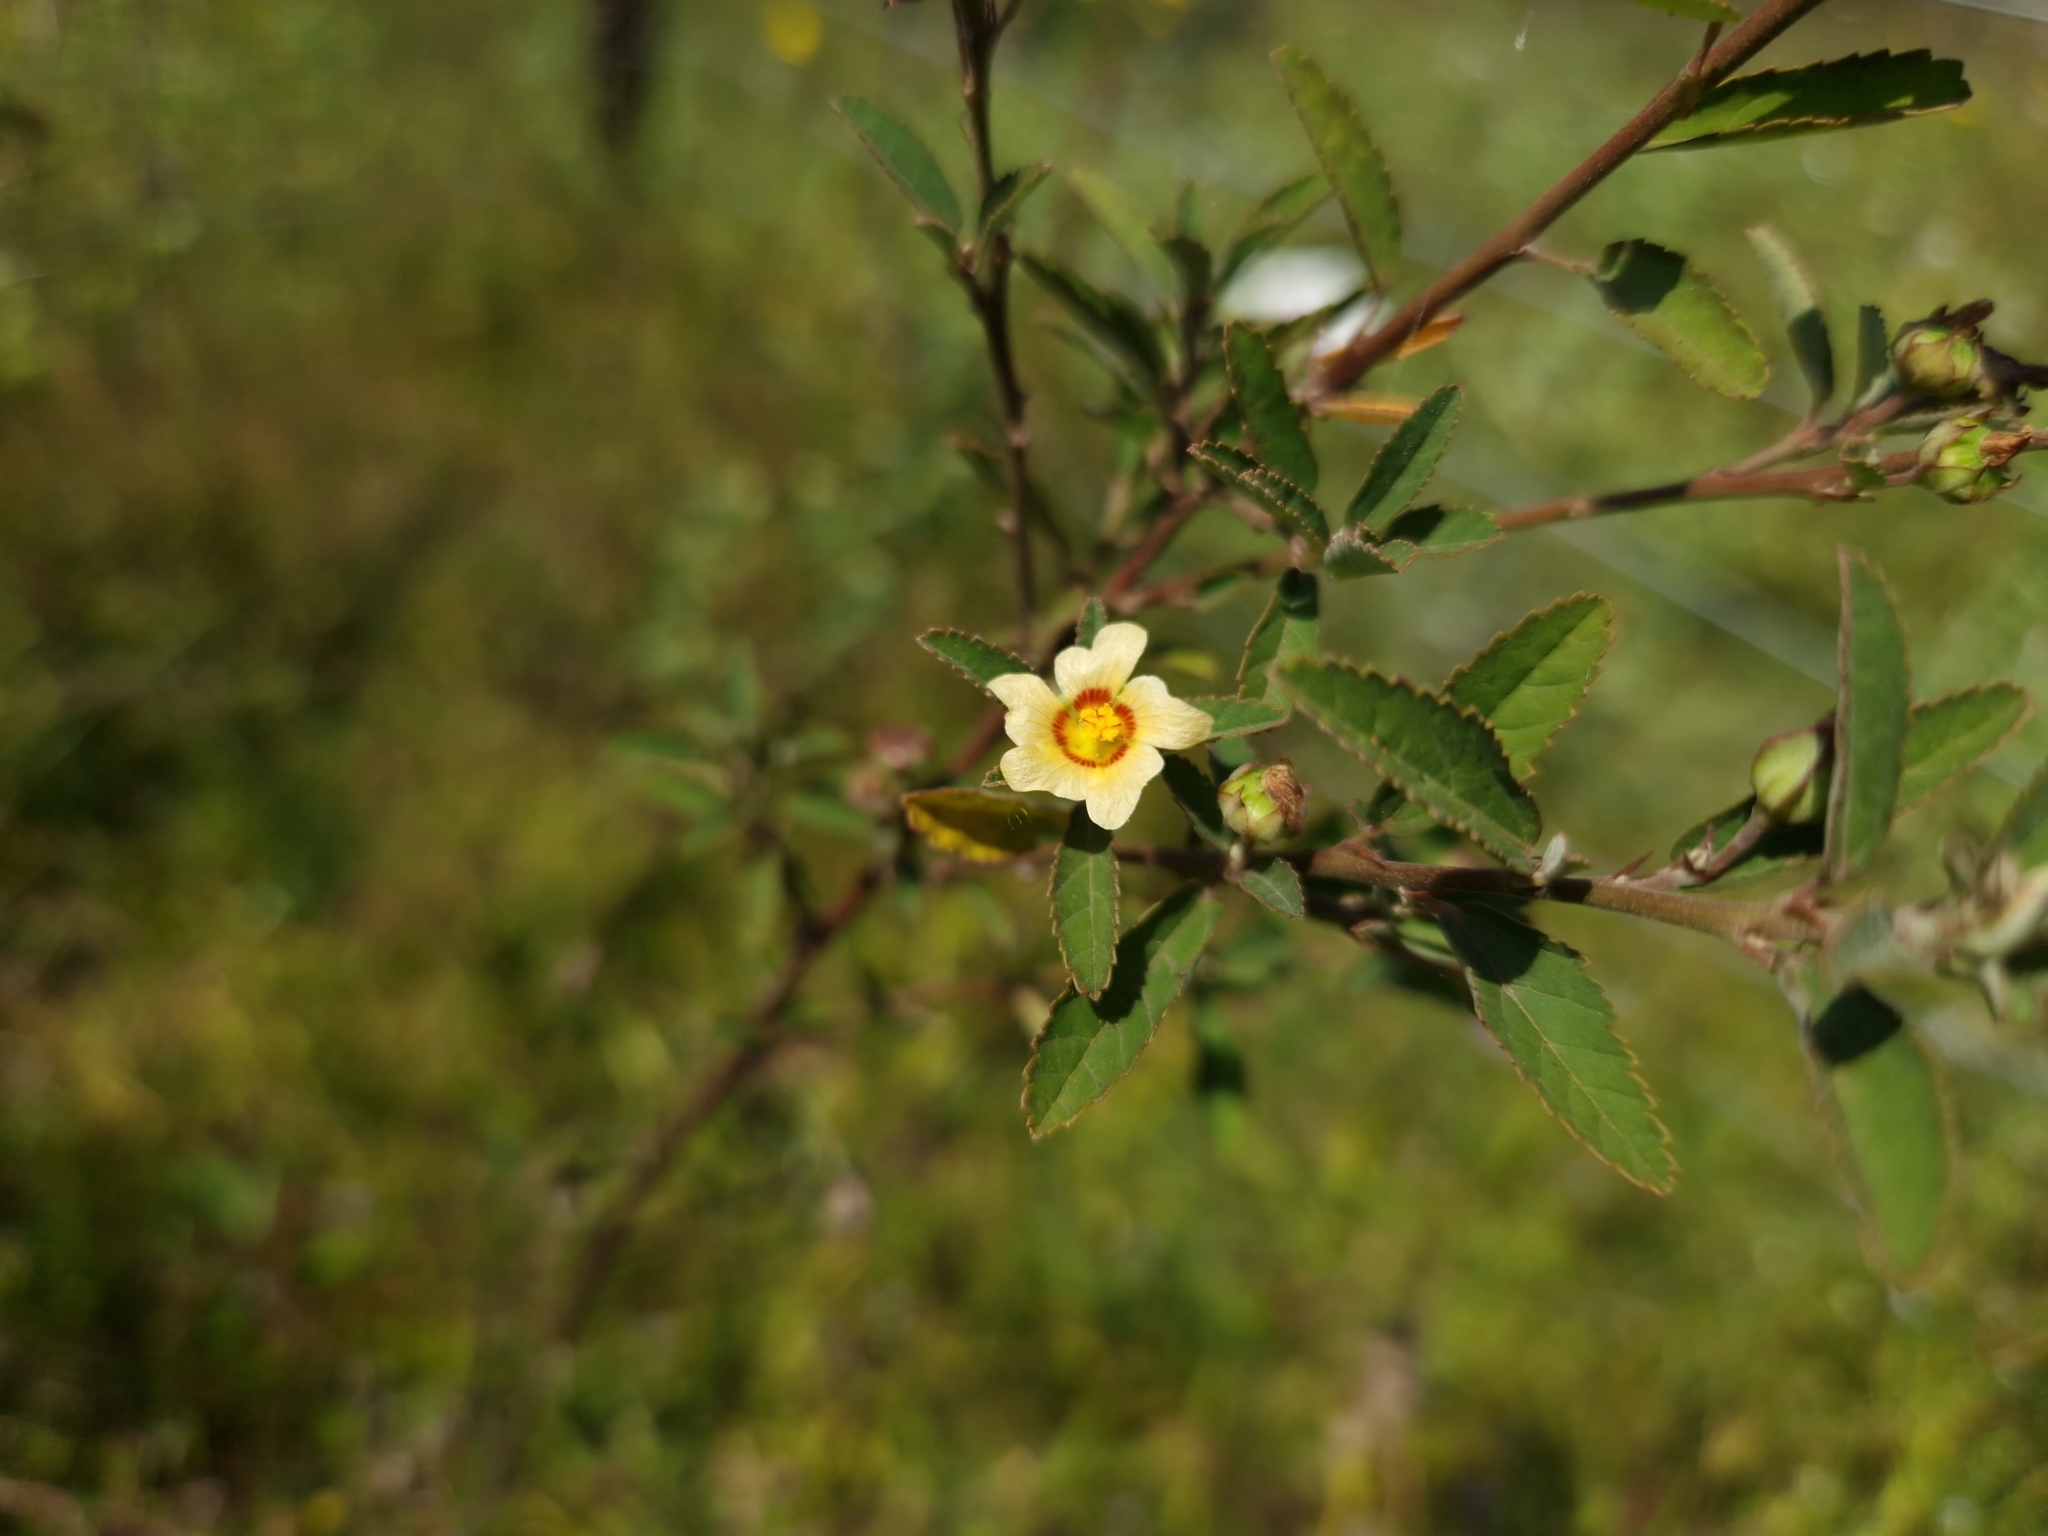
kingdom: Plantae
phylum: Tracheophyta
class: Magnoliopsida
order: Malvales
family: Malvaceae
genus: Sida
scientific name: Sida spinosa
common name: Prickly fanpetals
